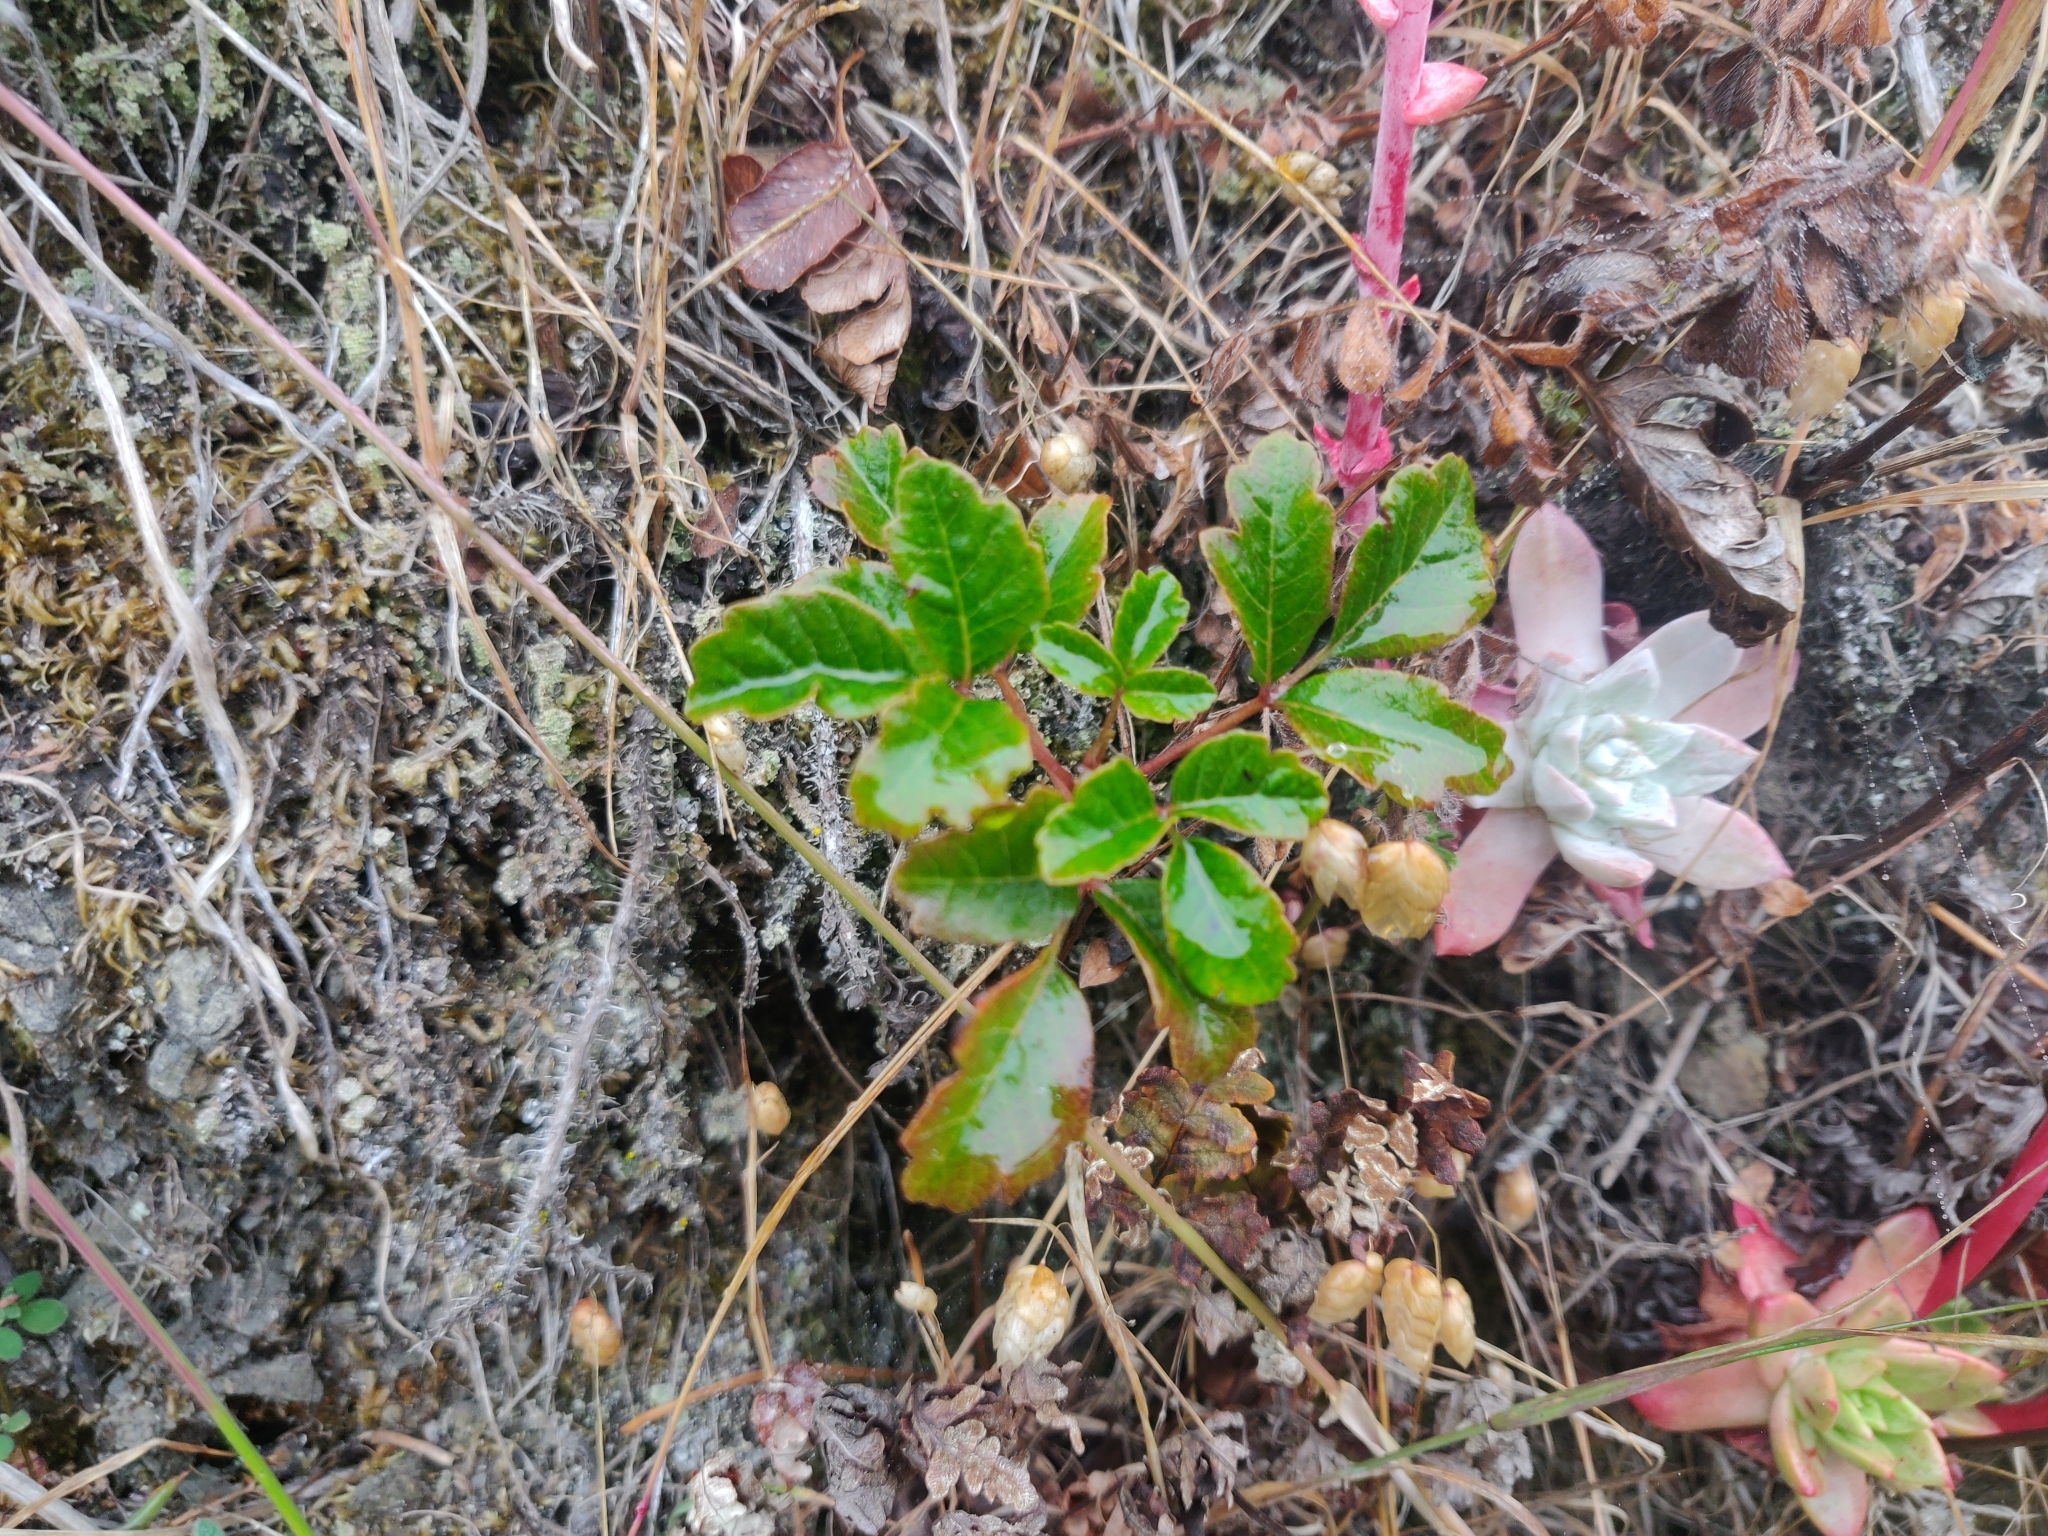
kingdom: Plantae
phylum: Tracheophyta
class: Magnoliopsida
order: Sapindales
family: Anacardiaceae
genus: Toxicodendron
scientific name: Toxicodendron diversilobum
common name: Pacific poison-oak
